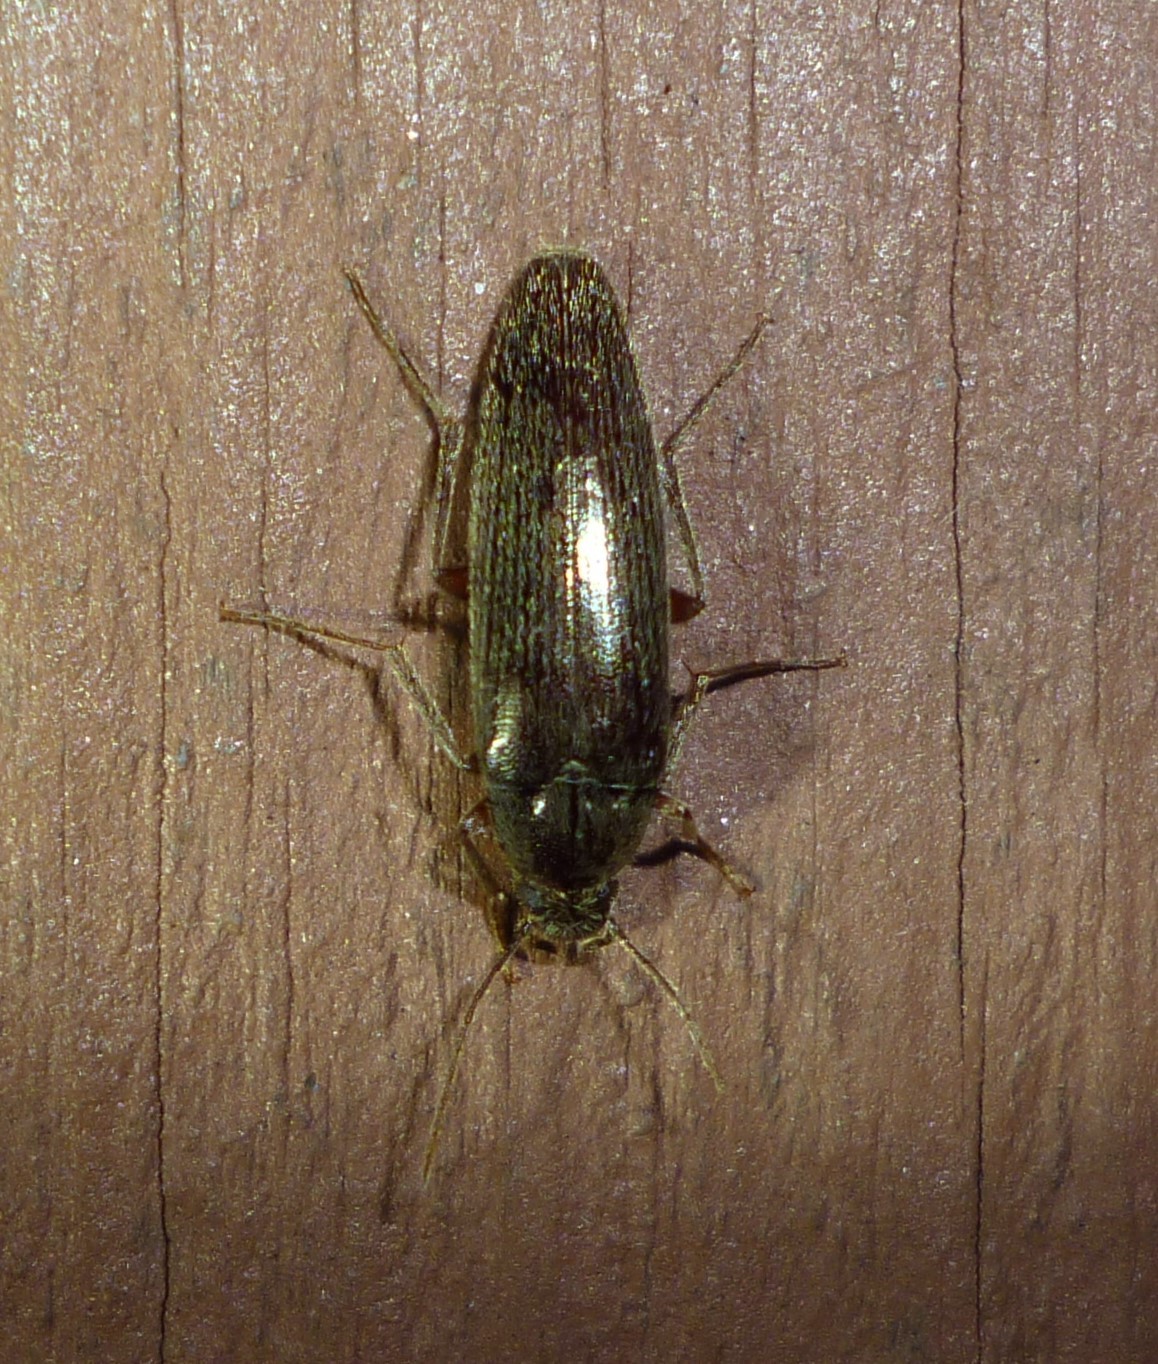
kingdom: Animalia
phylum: Arthropoda
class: Insecta
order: Coleoptera
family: Synchroidae
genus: Synchroa
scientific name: Synchroa punctata
